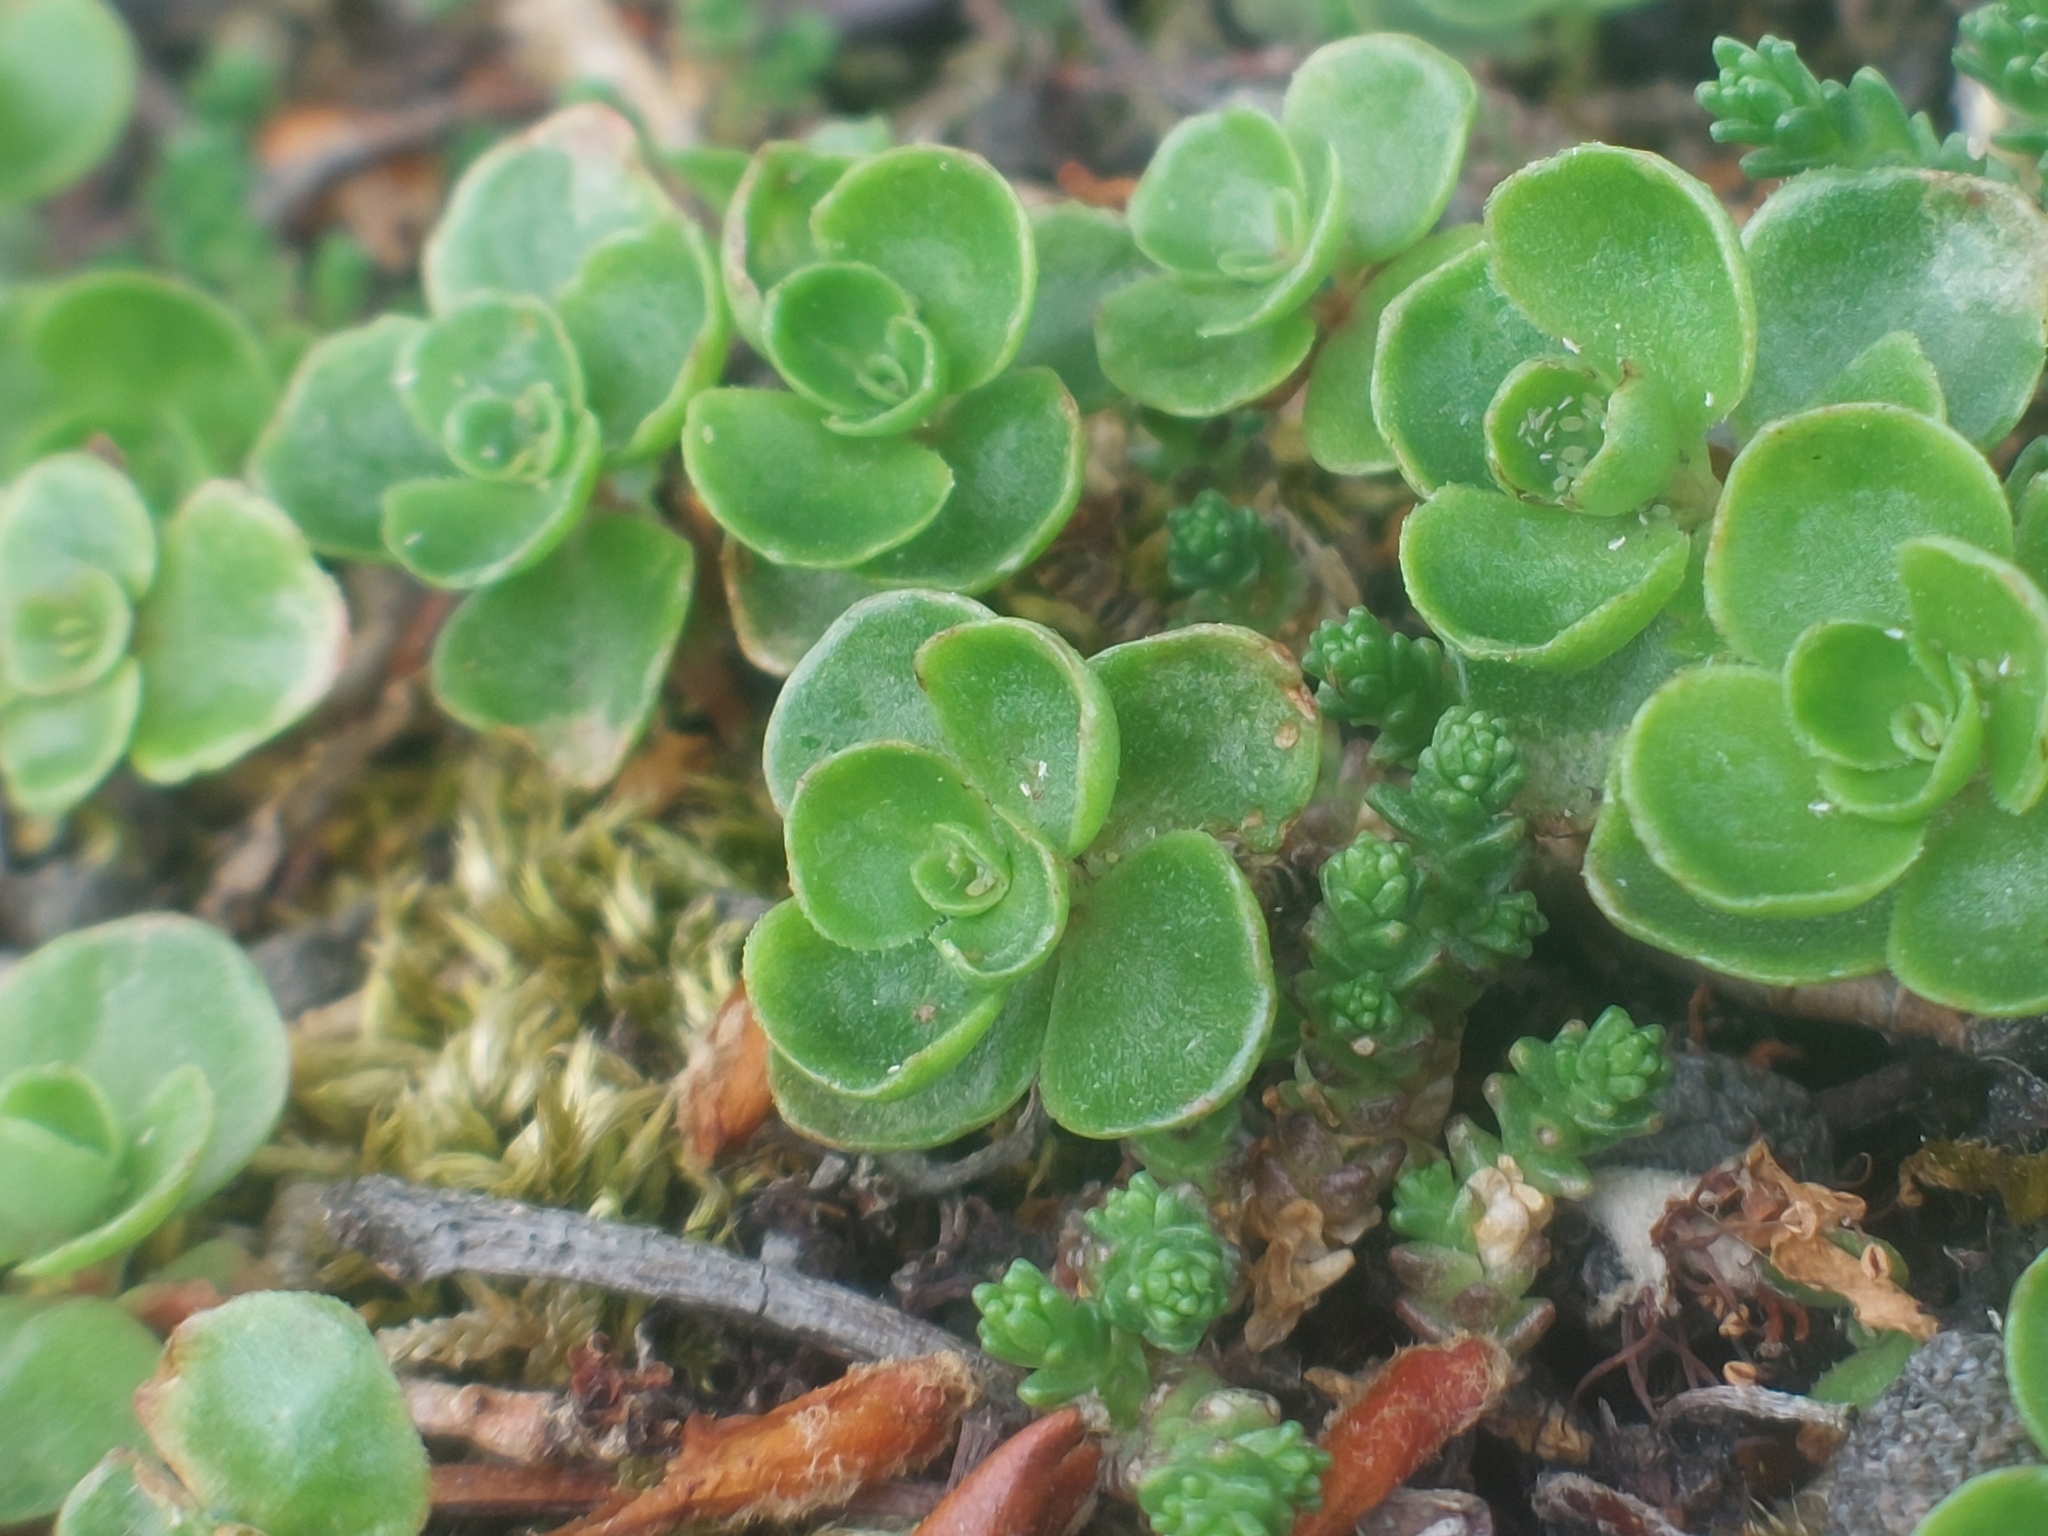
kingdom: Plantae
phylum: Tracheophyta
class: Magnoliopsida
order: Saxifragales
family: Crassulaceae
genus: Phedimus
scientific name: Phedimus spurius
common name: Caucasian stonecrop
